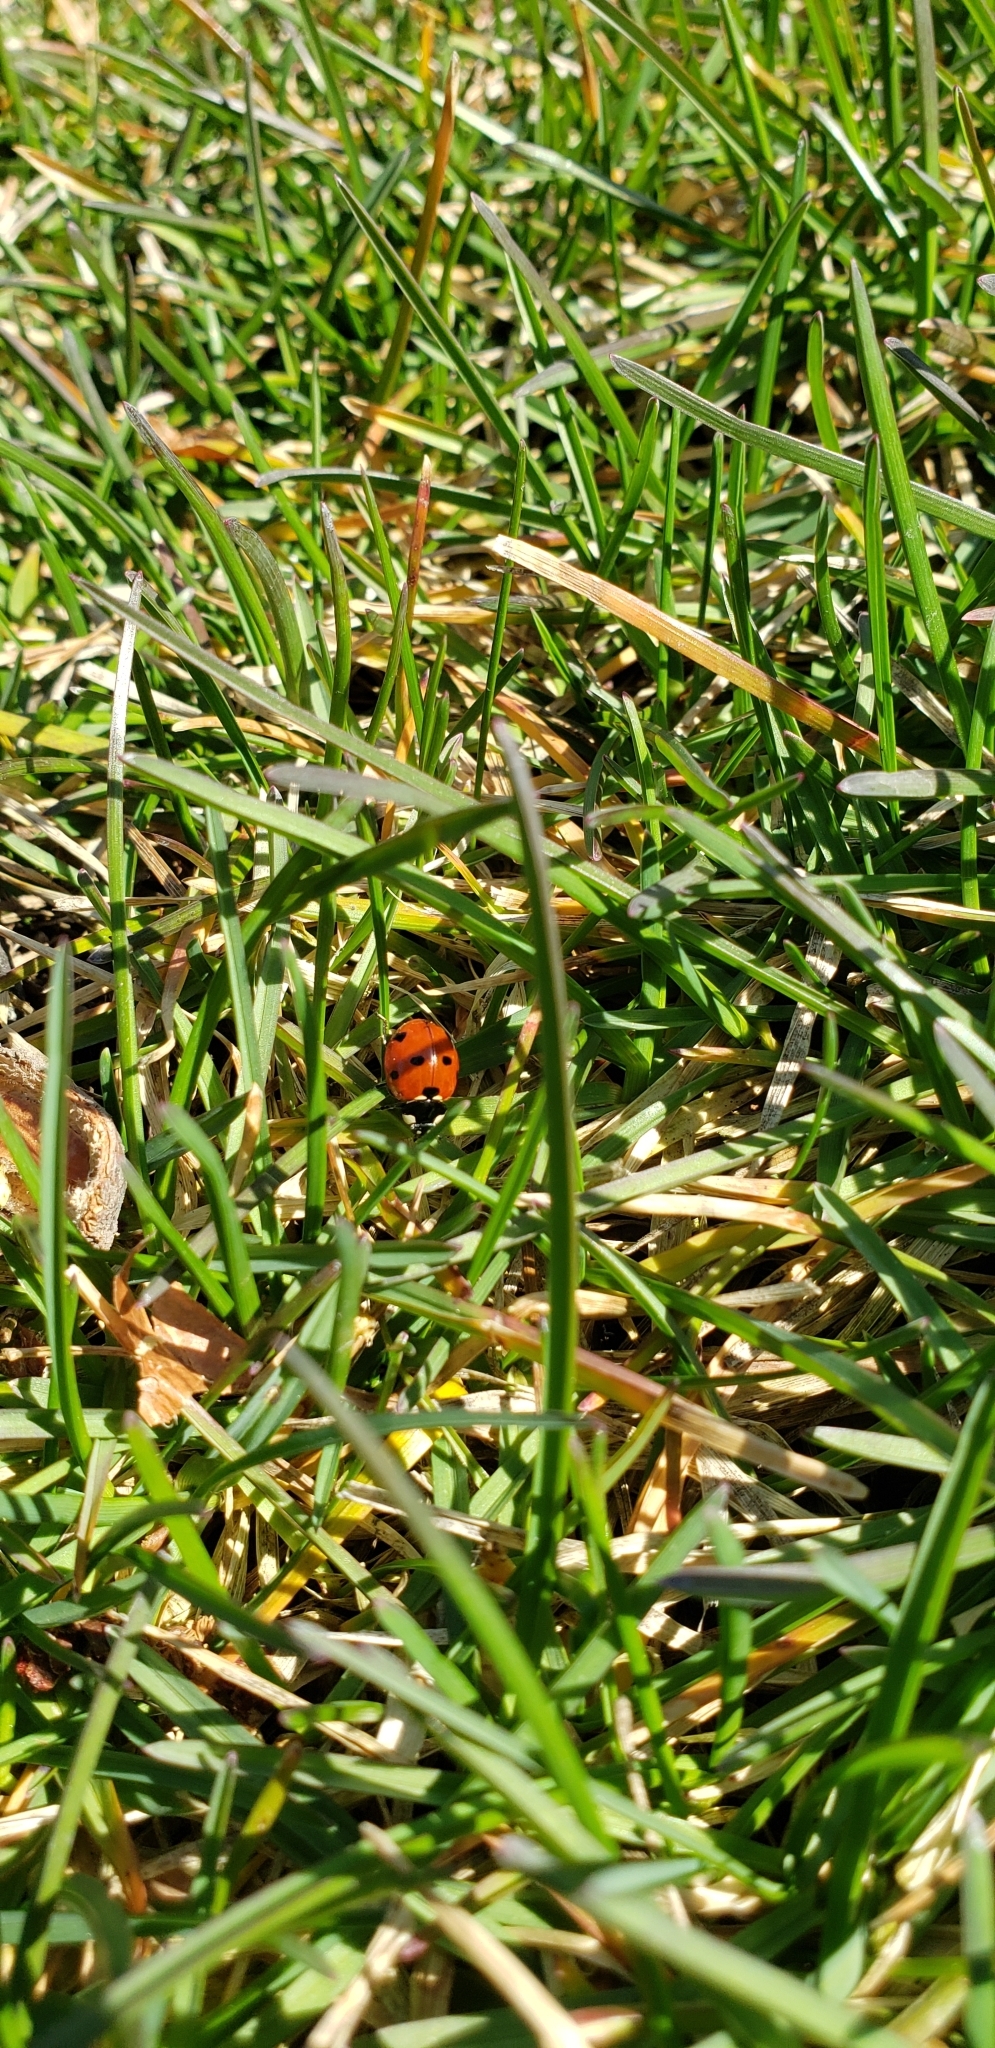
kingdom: Animalia
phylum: Arthropoda
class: Insecta
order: Coleoptera
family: Coccinellidae
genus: Coccinella
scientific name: Coccinella septempunctata
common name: Sevenspotted lady beetle
